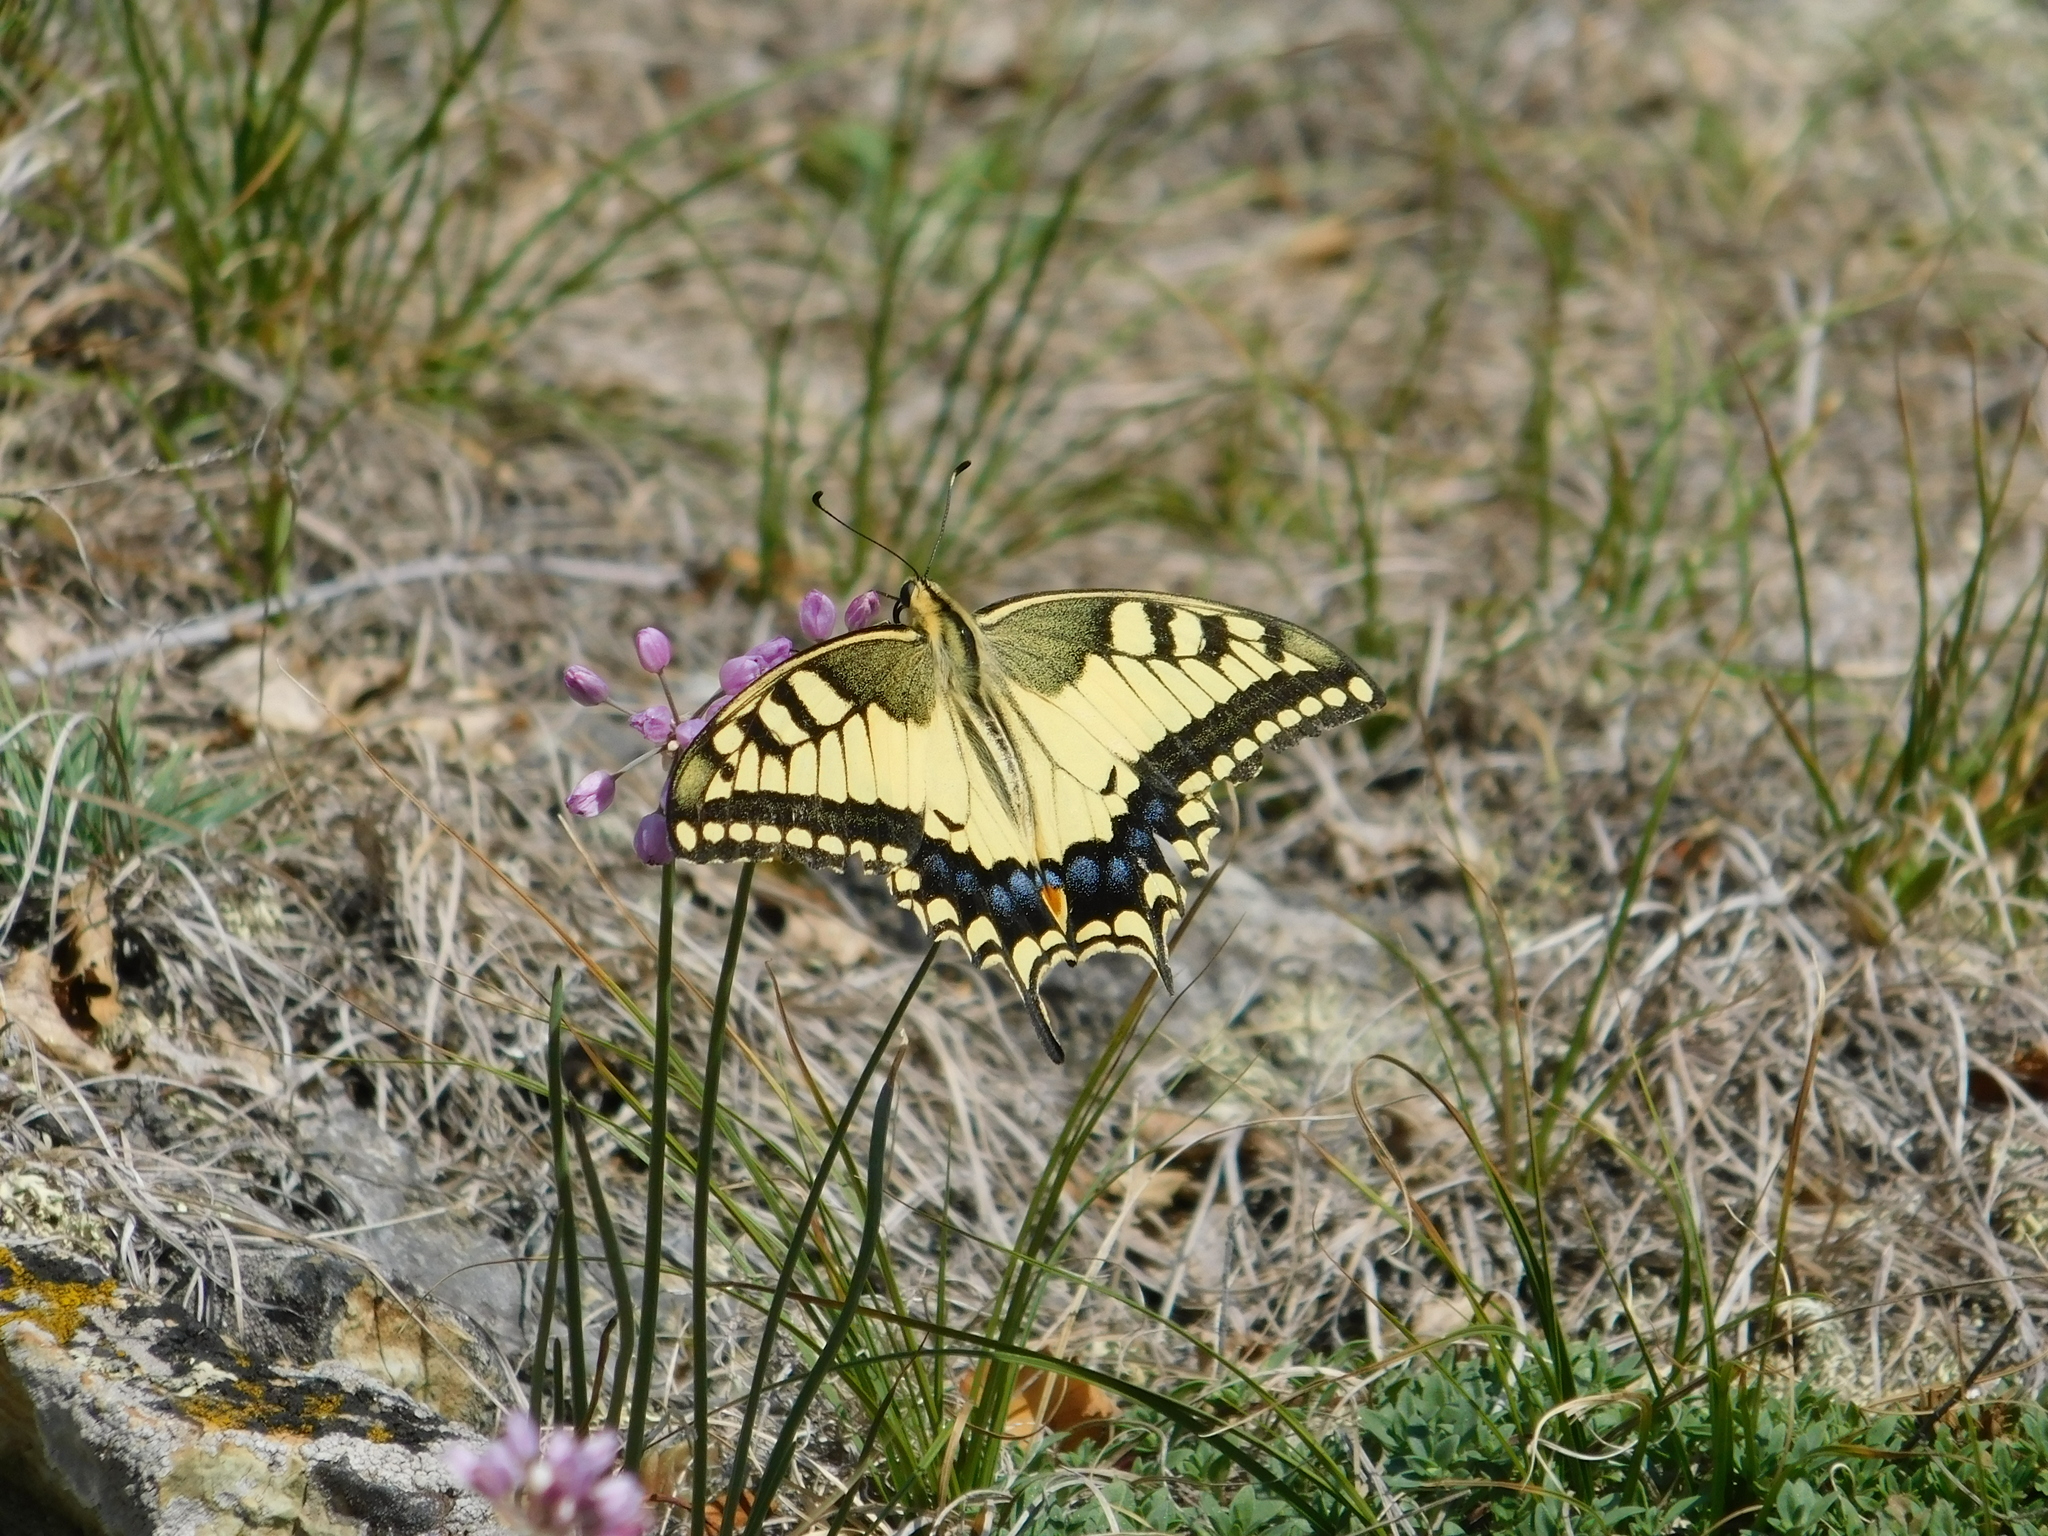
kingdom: Animalia
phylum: Arthropoda
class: Insecta
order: Lepidoptera
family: Papilionidae
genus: Papilio
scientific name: Papilio machaon
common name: Swallowtail
